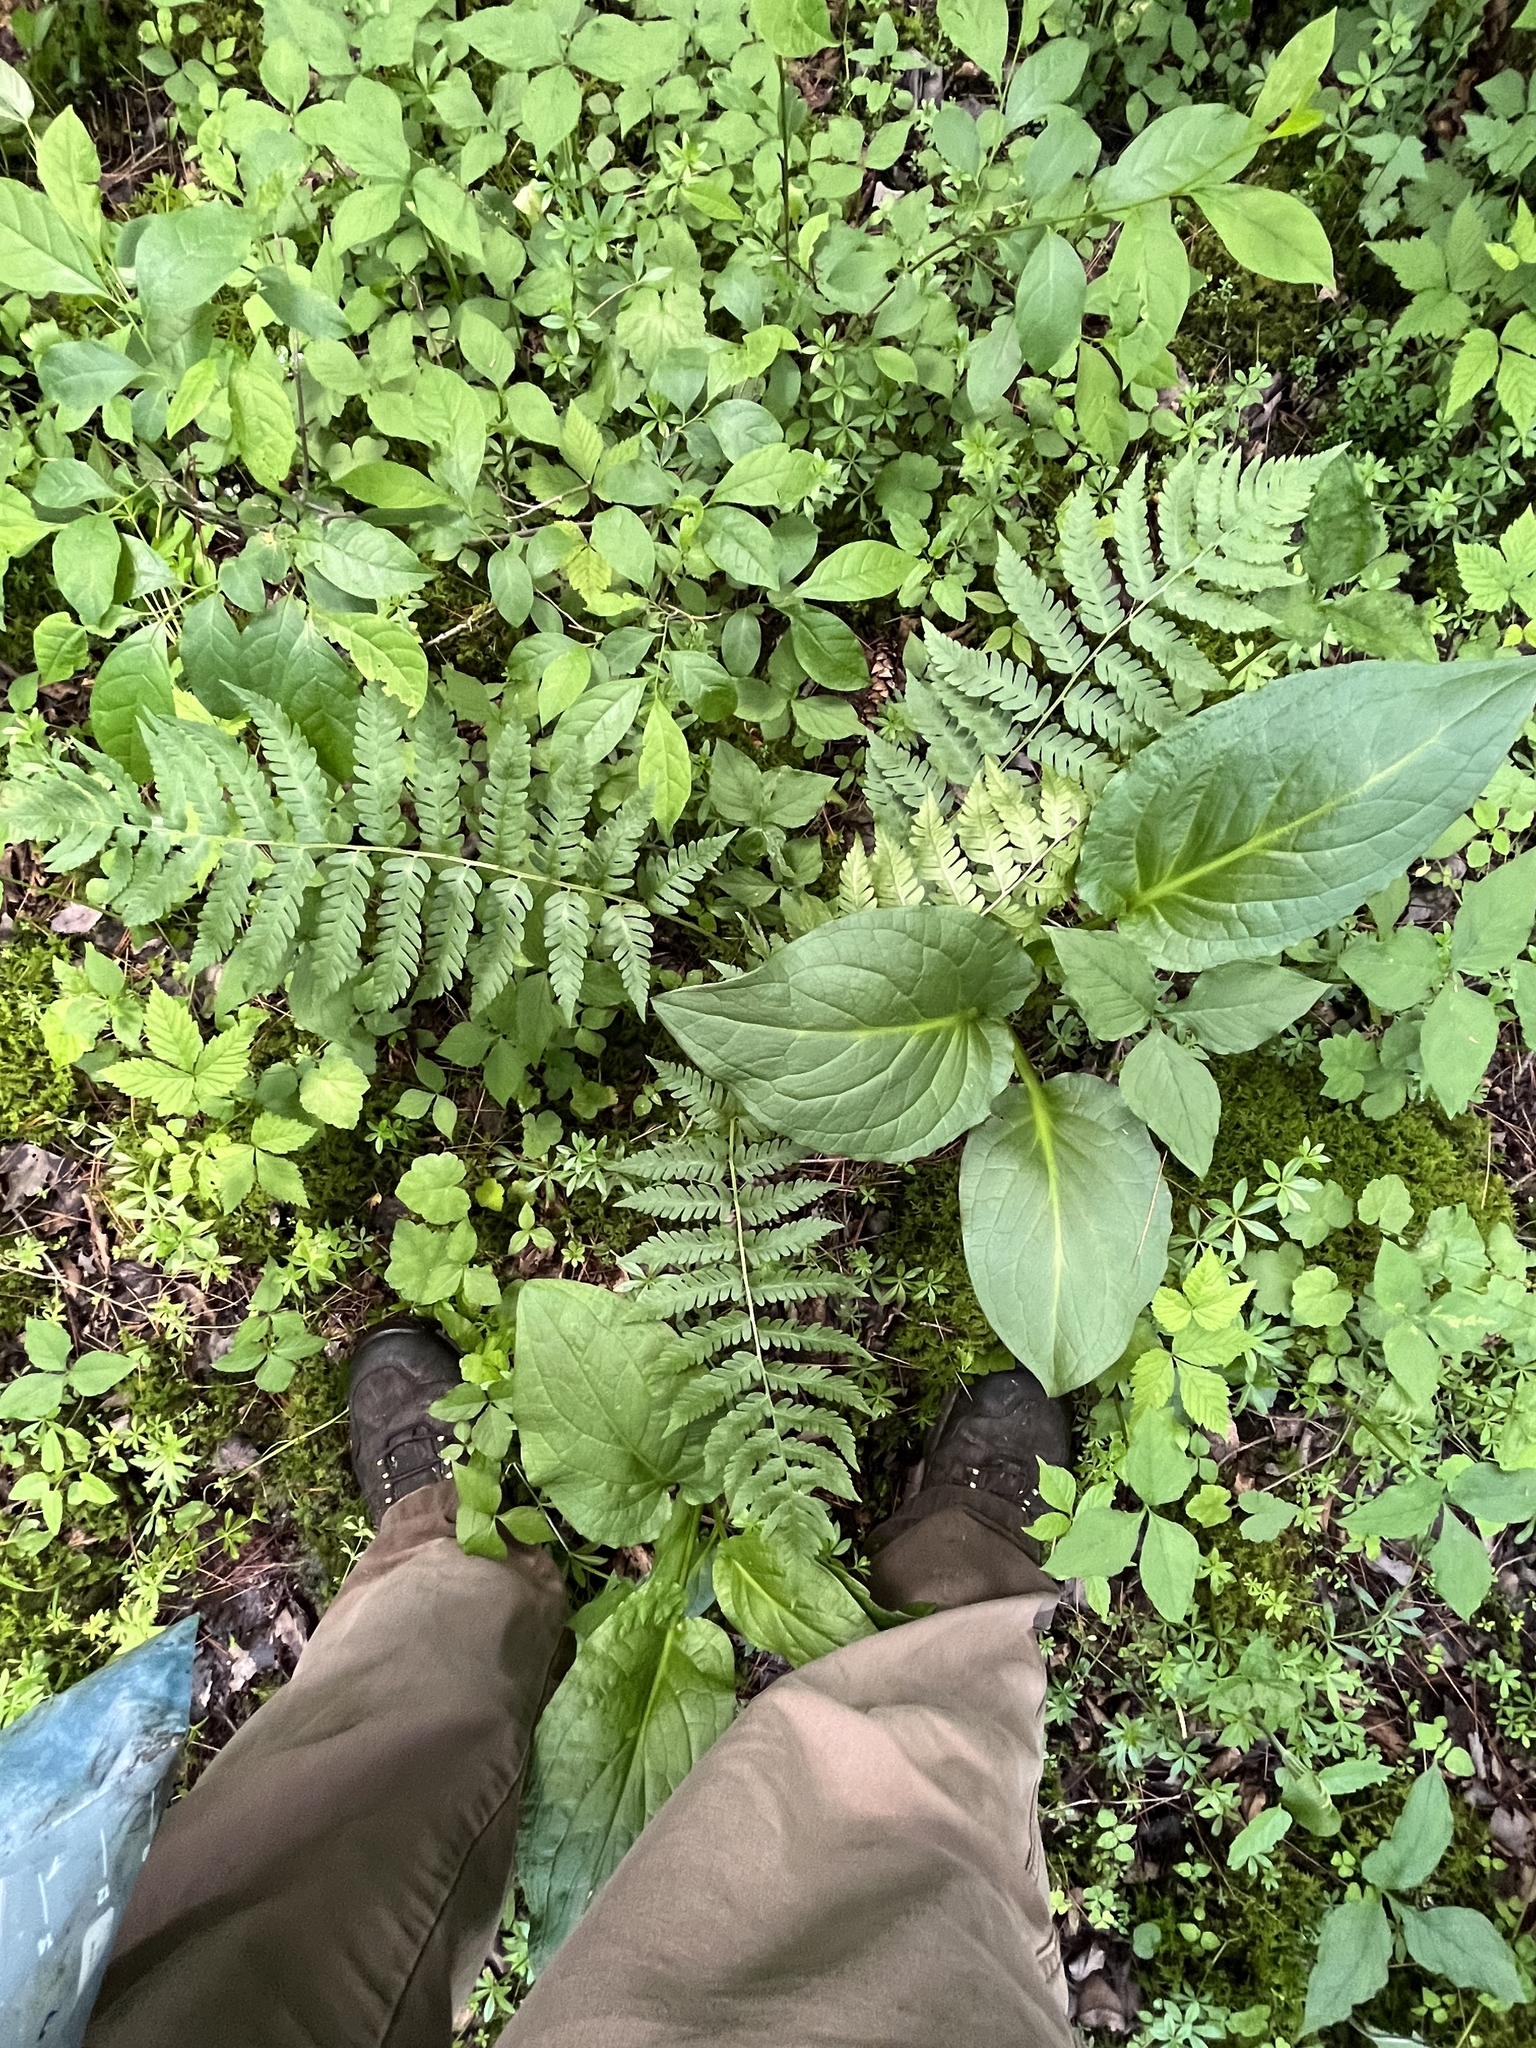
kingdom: Plantae
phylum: Tracheophyta
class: Polypodiopsida
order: Polypodiales
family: Dryopteridaceae
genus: Dryopteris
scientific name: Dryopteris clintoniana
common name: Clinton's wood fern
